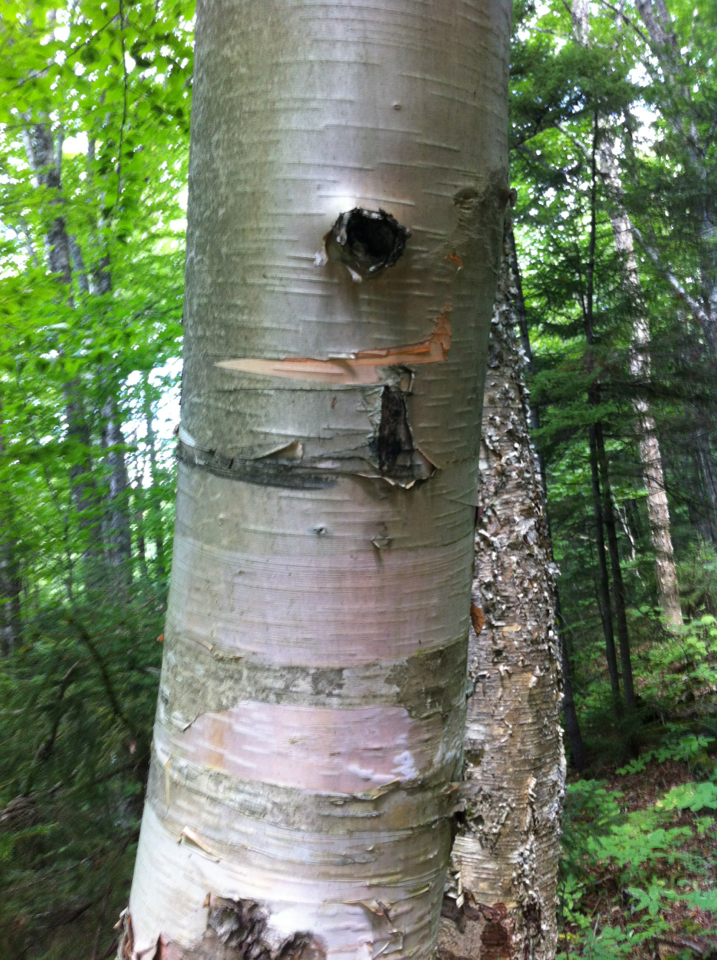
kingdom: Plantae
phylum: Tracheophyta
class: Magnoliopsida
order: Fagales
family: Betulaceae
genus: Betula
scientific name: Betula cordifolia
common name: Mountain white birch
